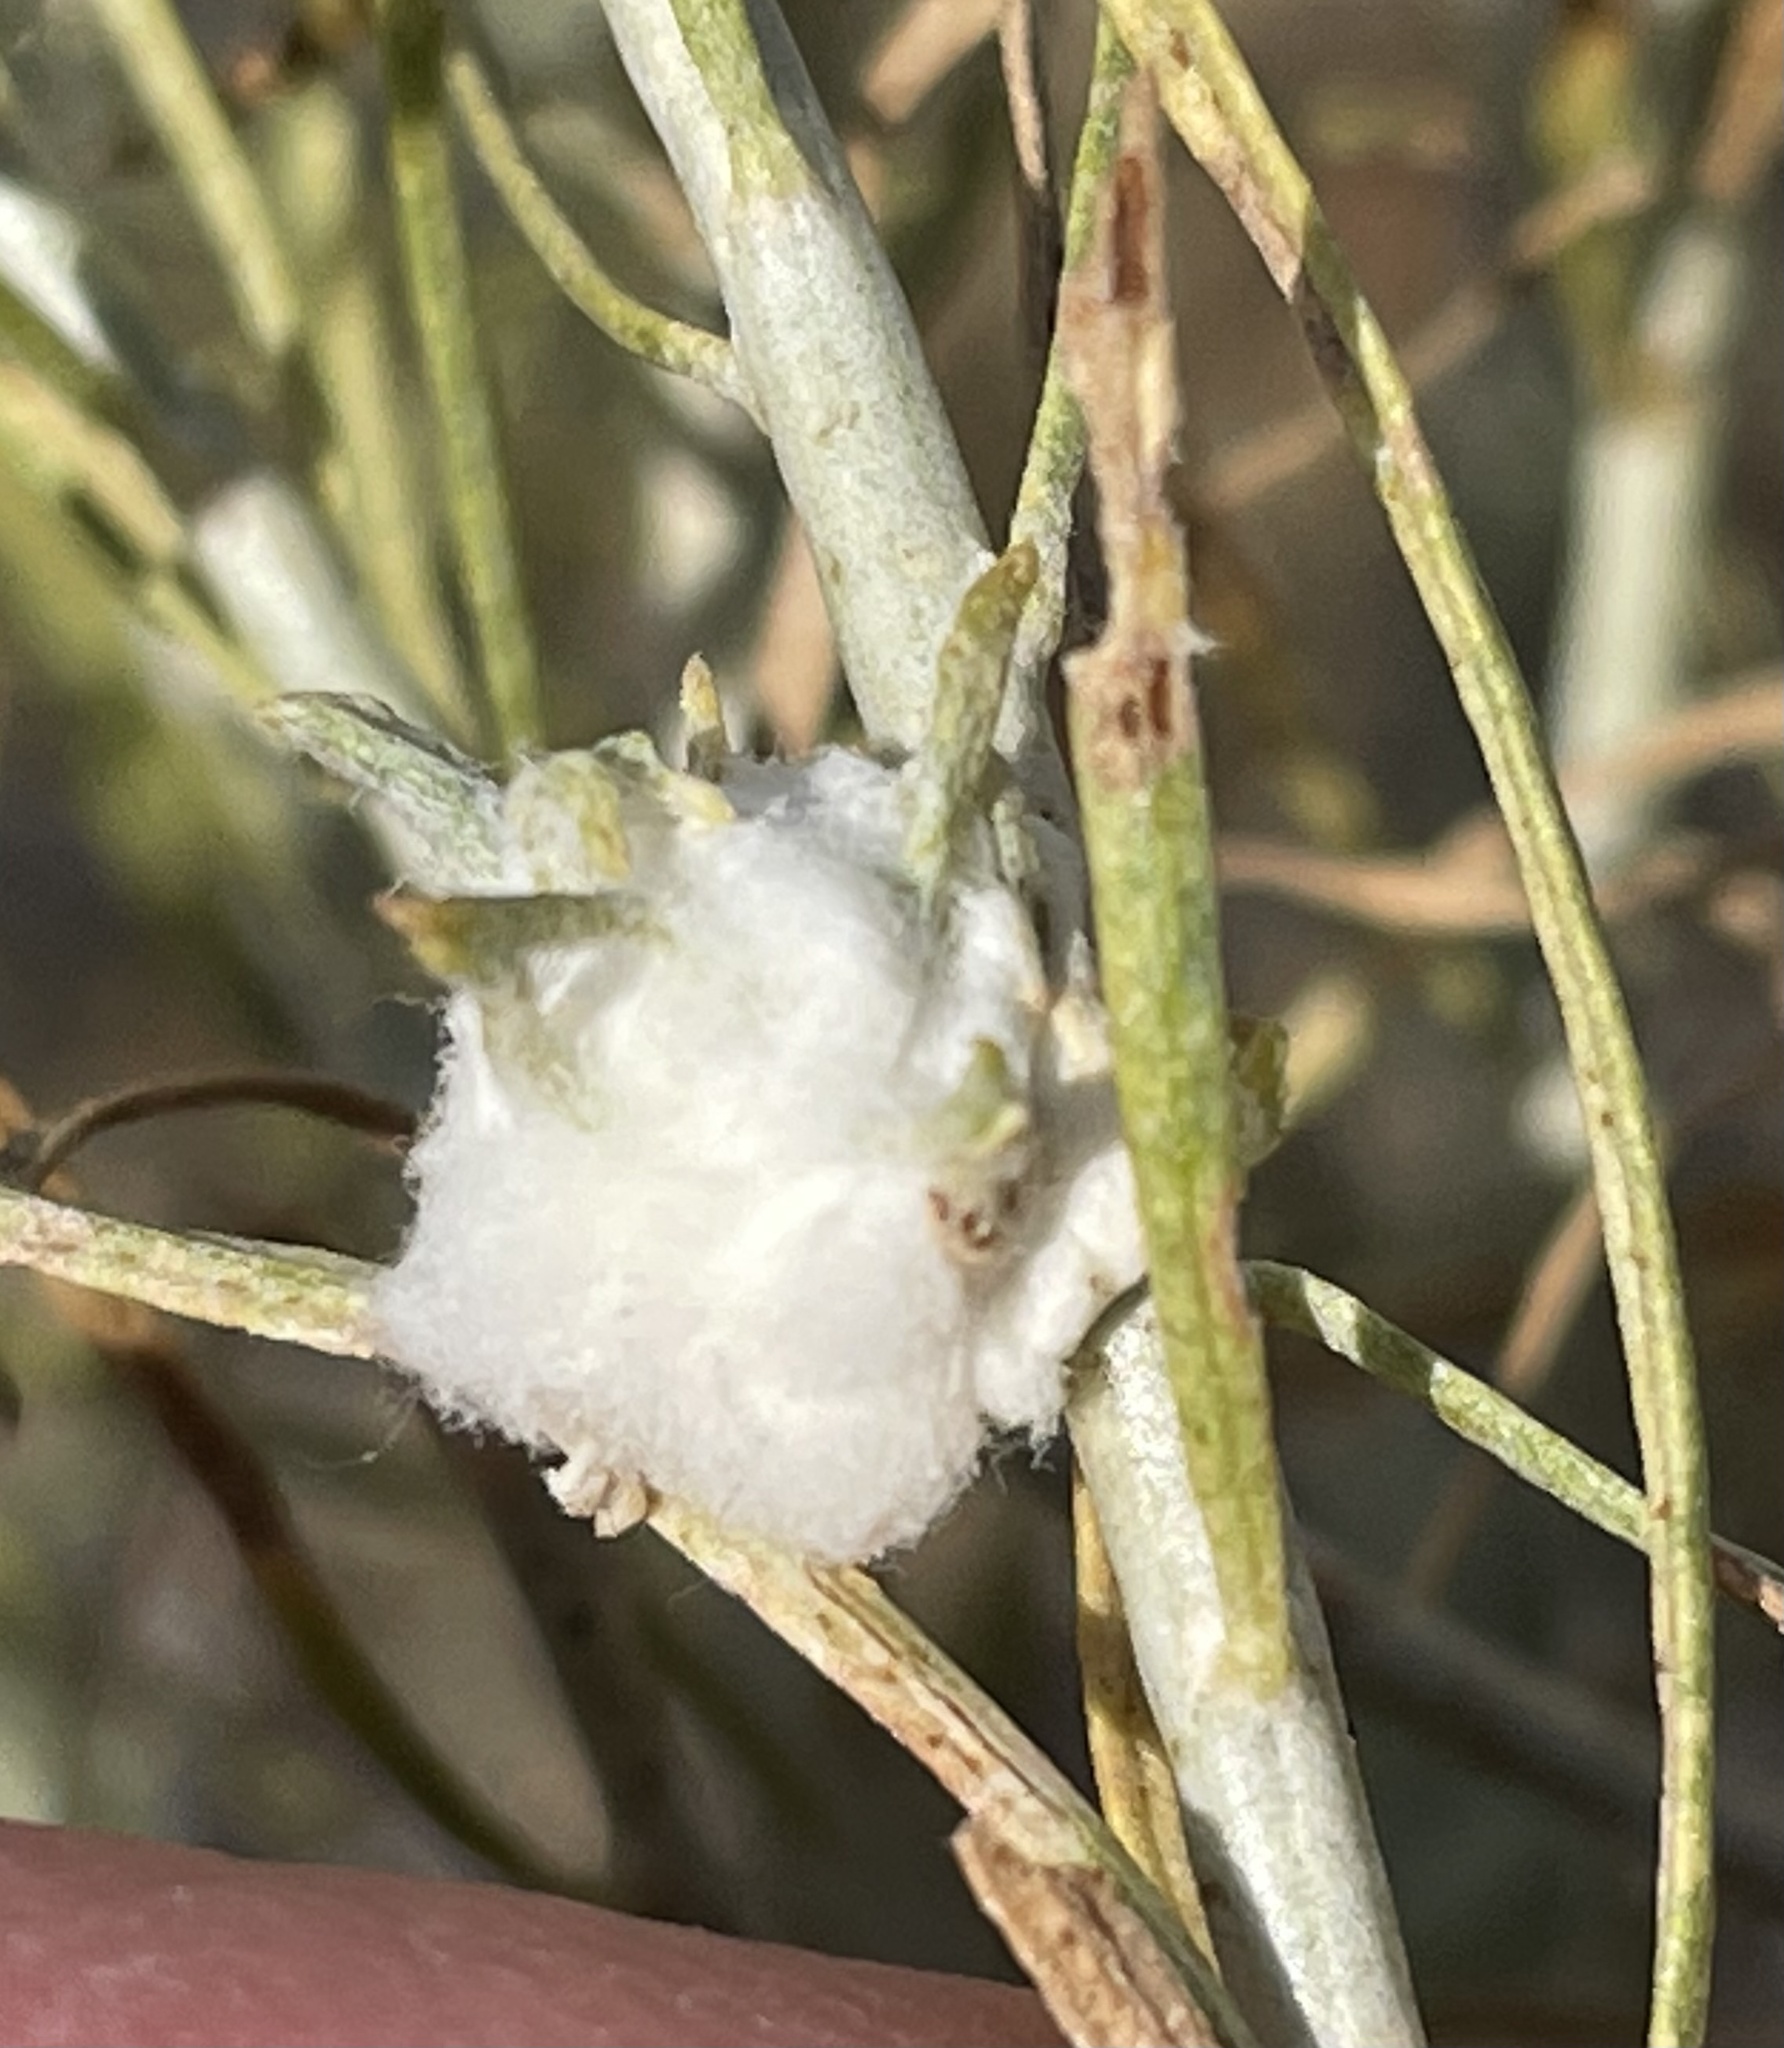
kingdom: Animalia
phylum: Arthropoda
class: Insecta
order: Diptera
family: Tephritidae
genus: Aciurina
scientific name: Aciurina bigeloviae
